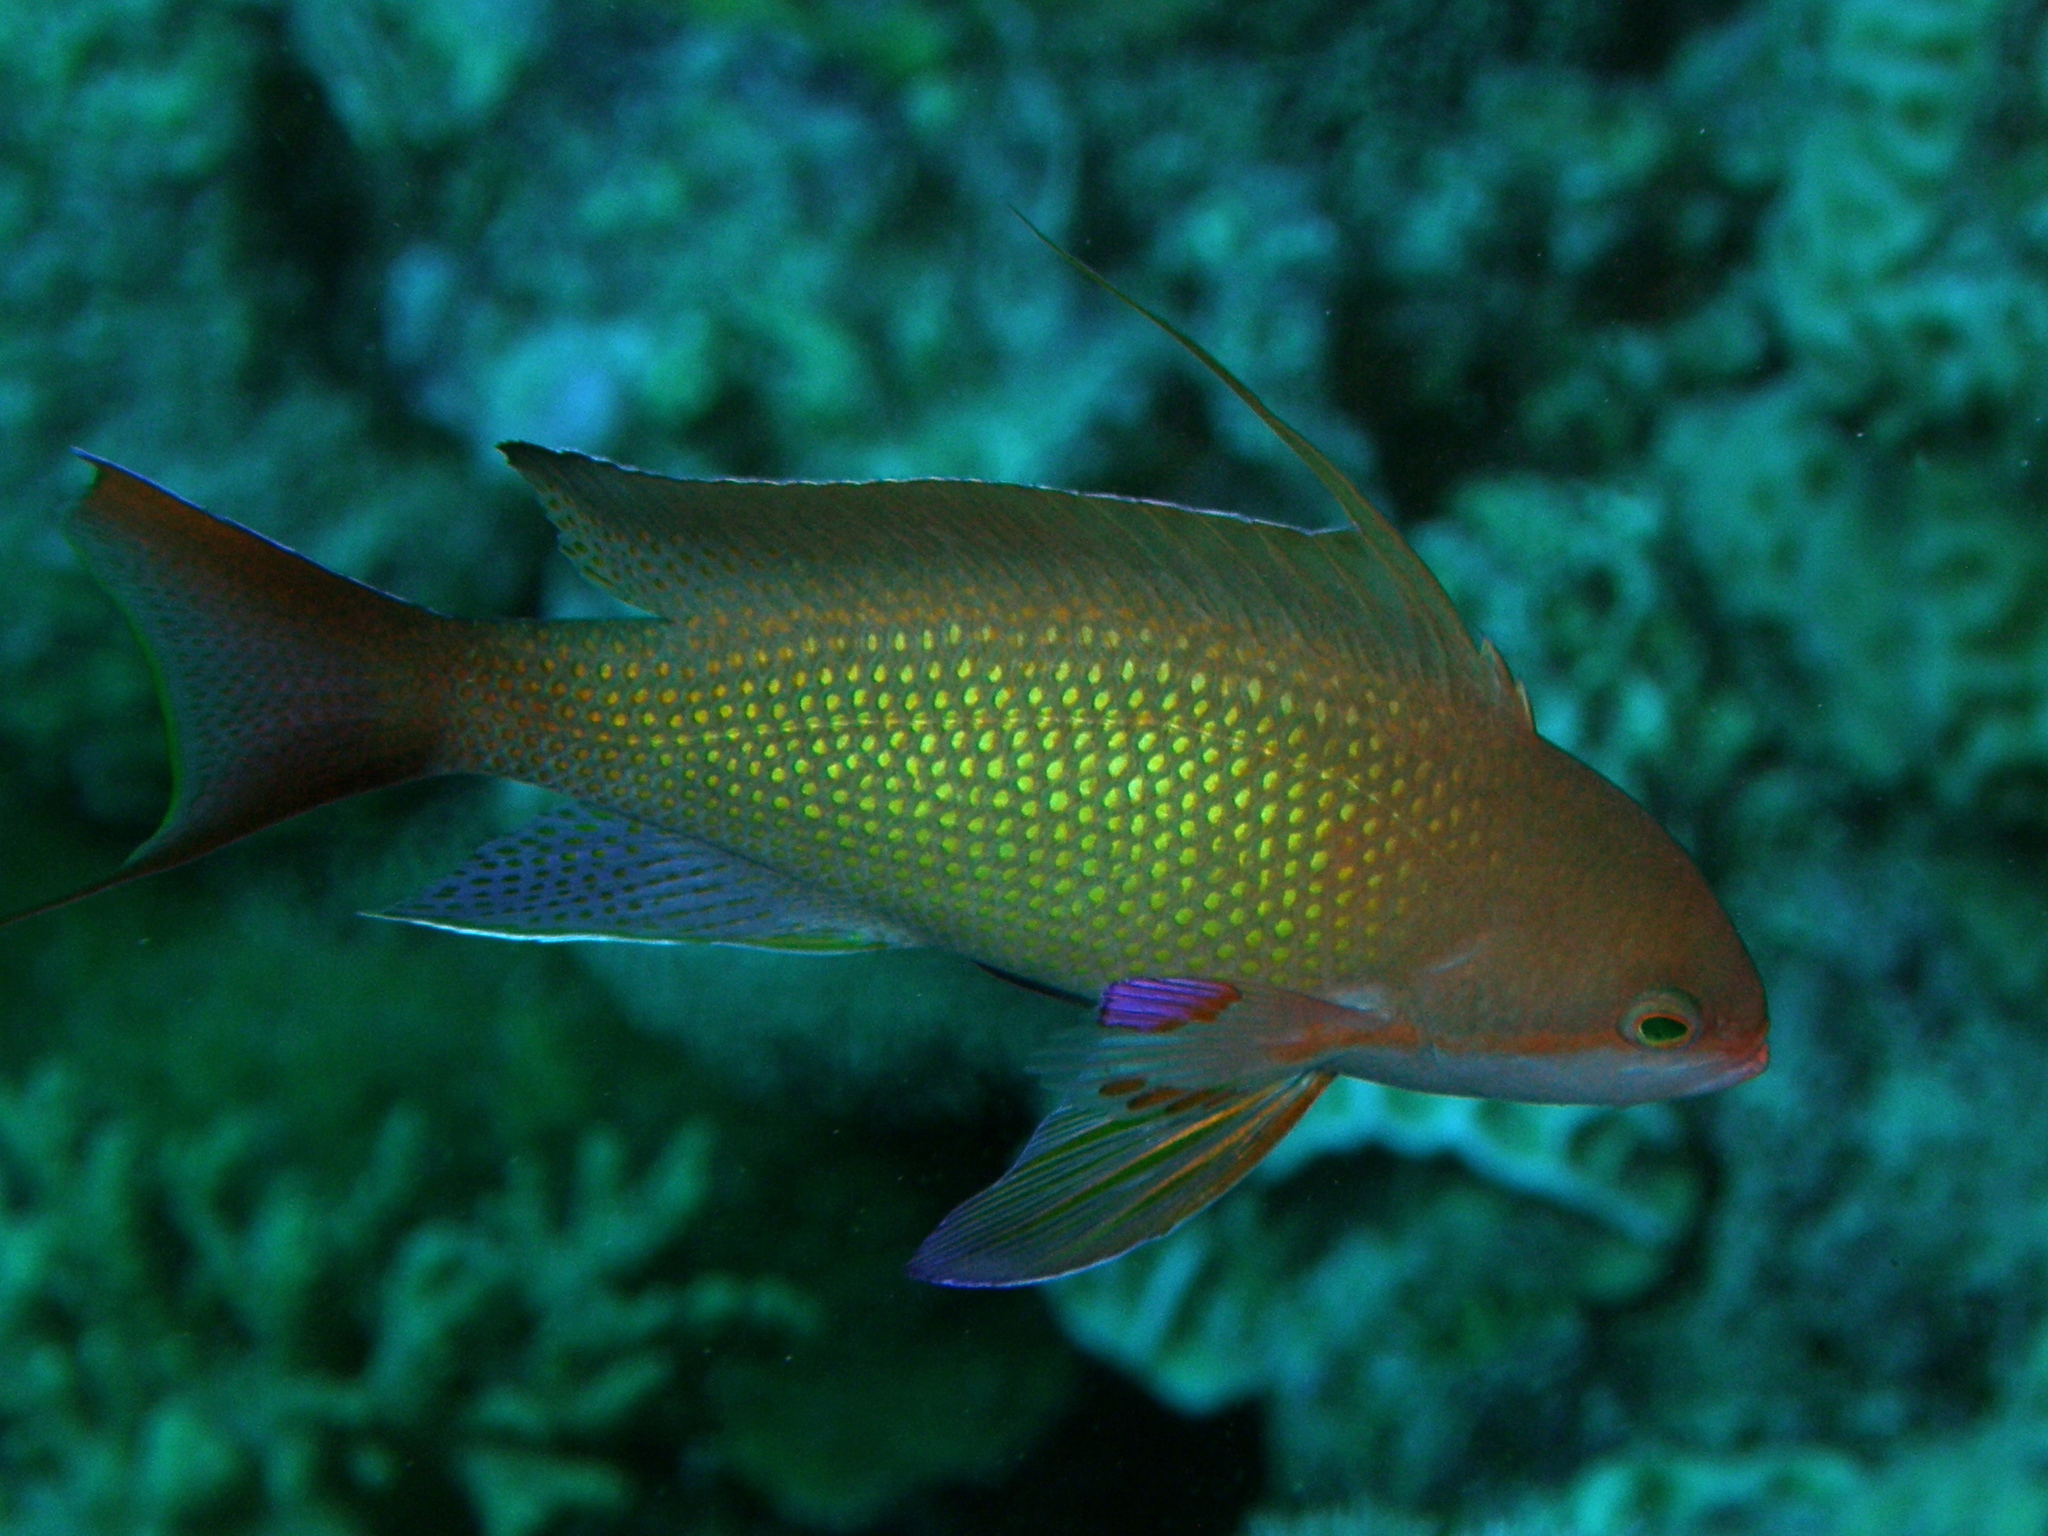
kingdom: Animalia
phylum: Chordata
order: Perciformes
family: Serranidae
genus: Pseudanthias
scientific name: Pseudanthias squamipinnis
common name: Scalefin anthias
